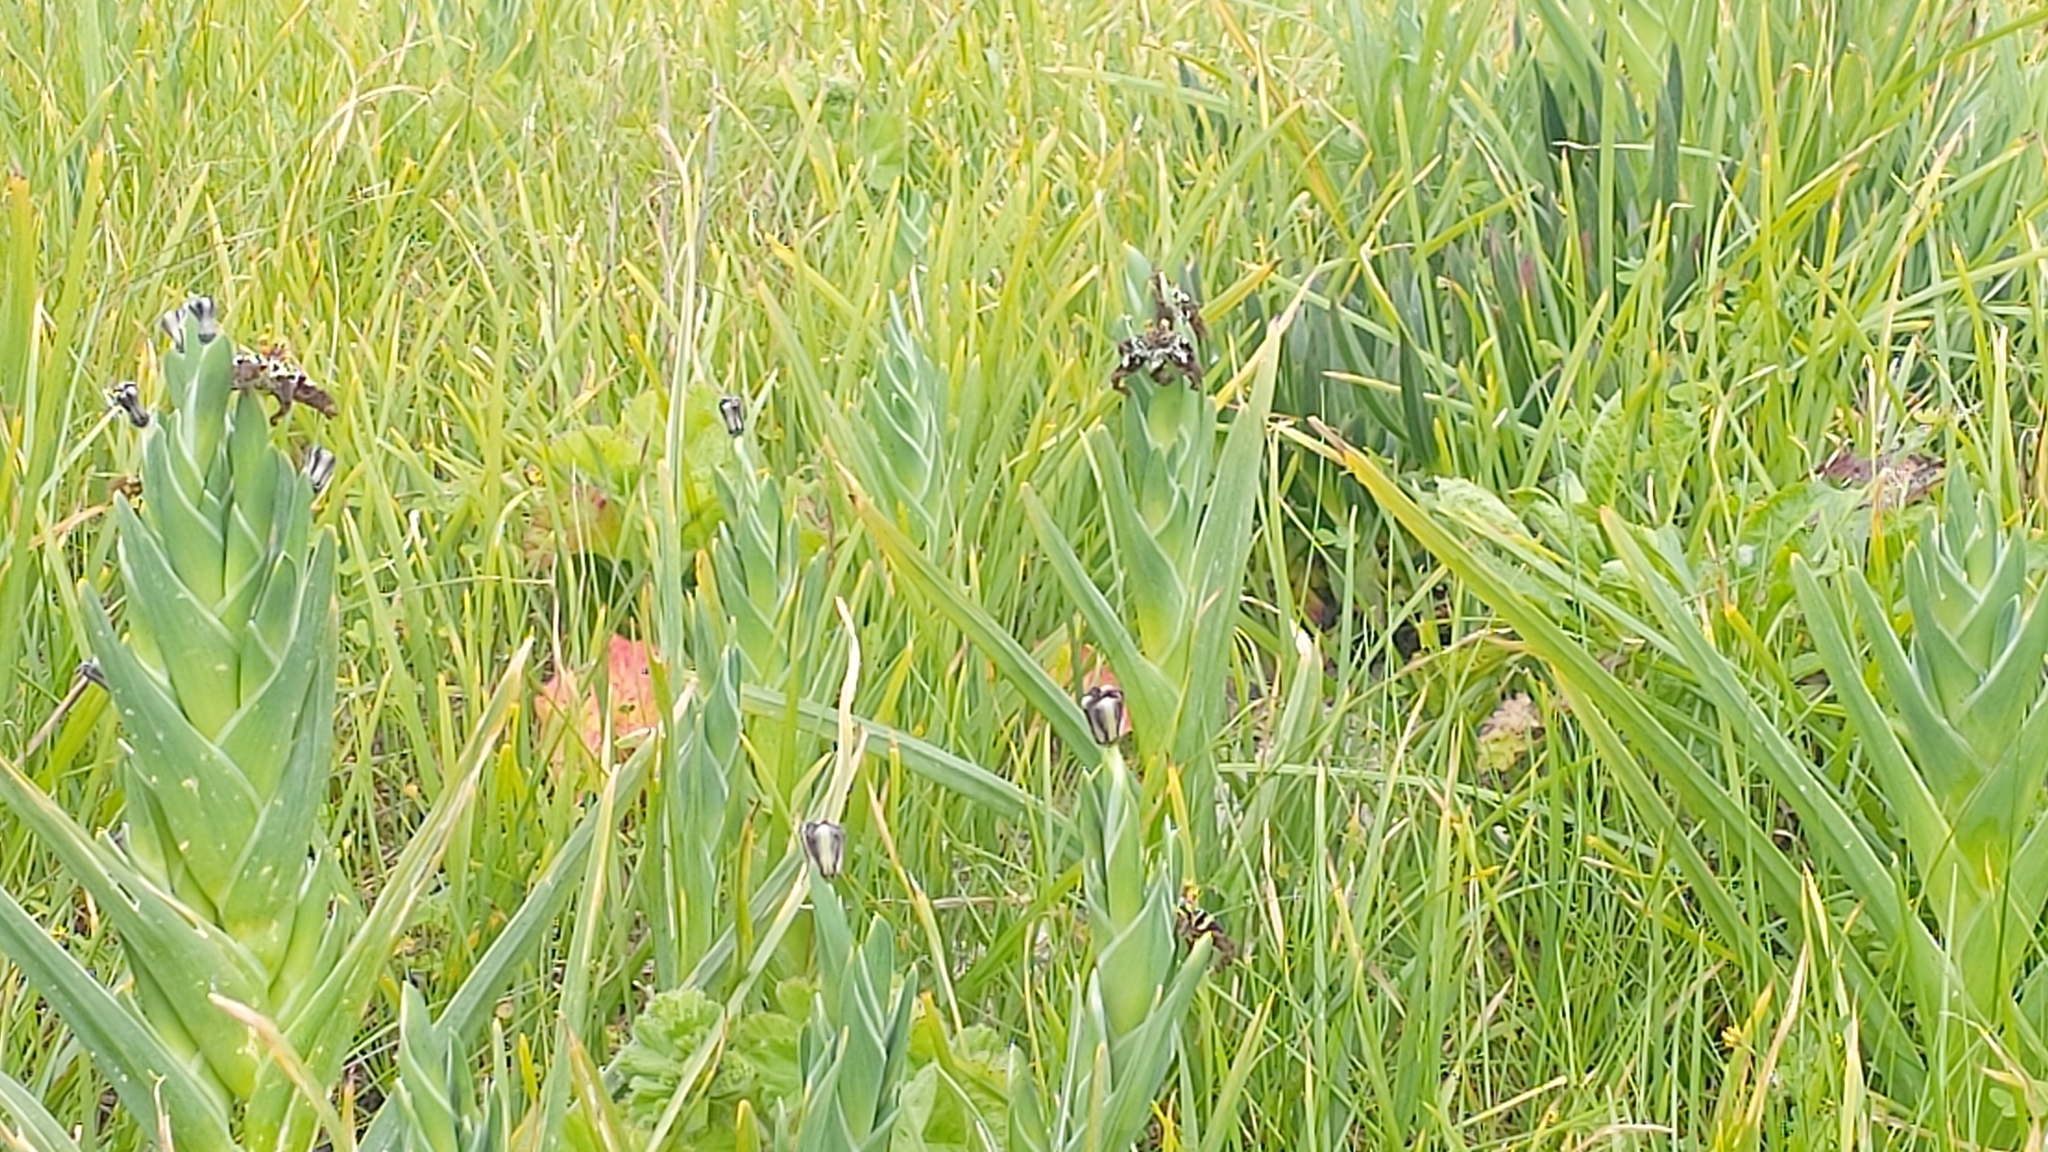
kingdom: Plantae
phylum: Tracheophyta
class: Liliopsida
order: Asparagales
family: Iridaceae
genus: Ferraria
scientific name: Ferraria crispa
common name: Black-flag
